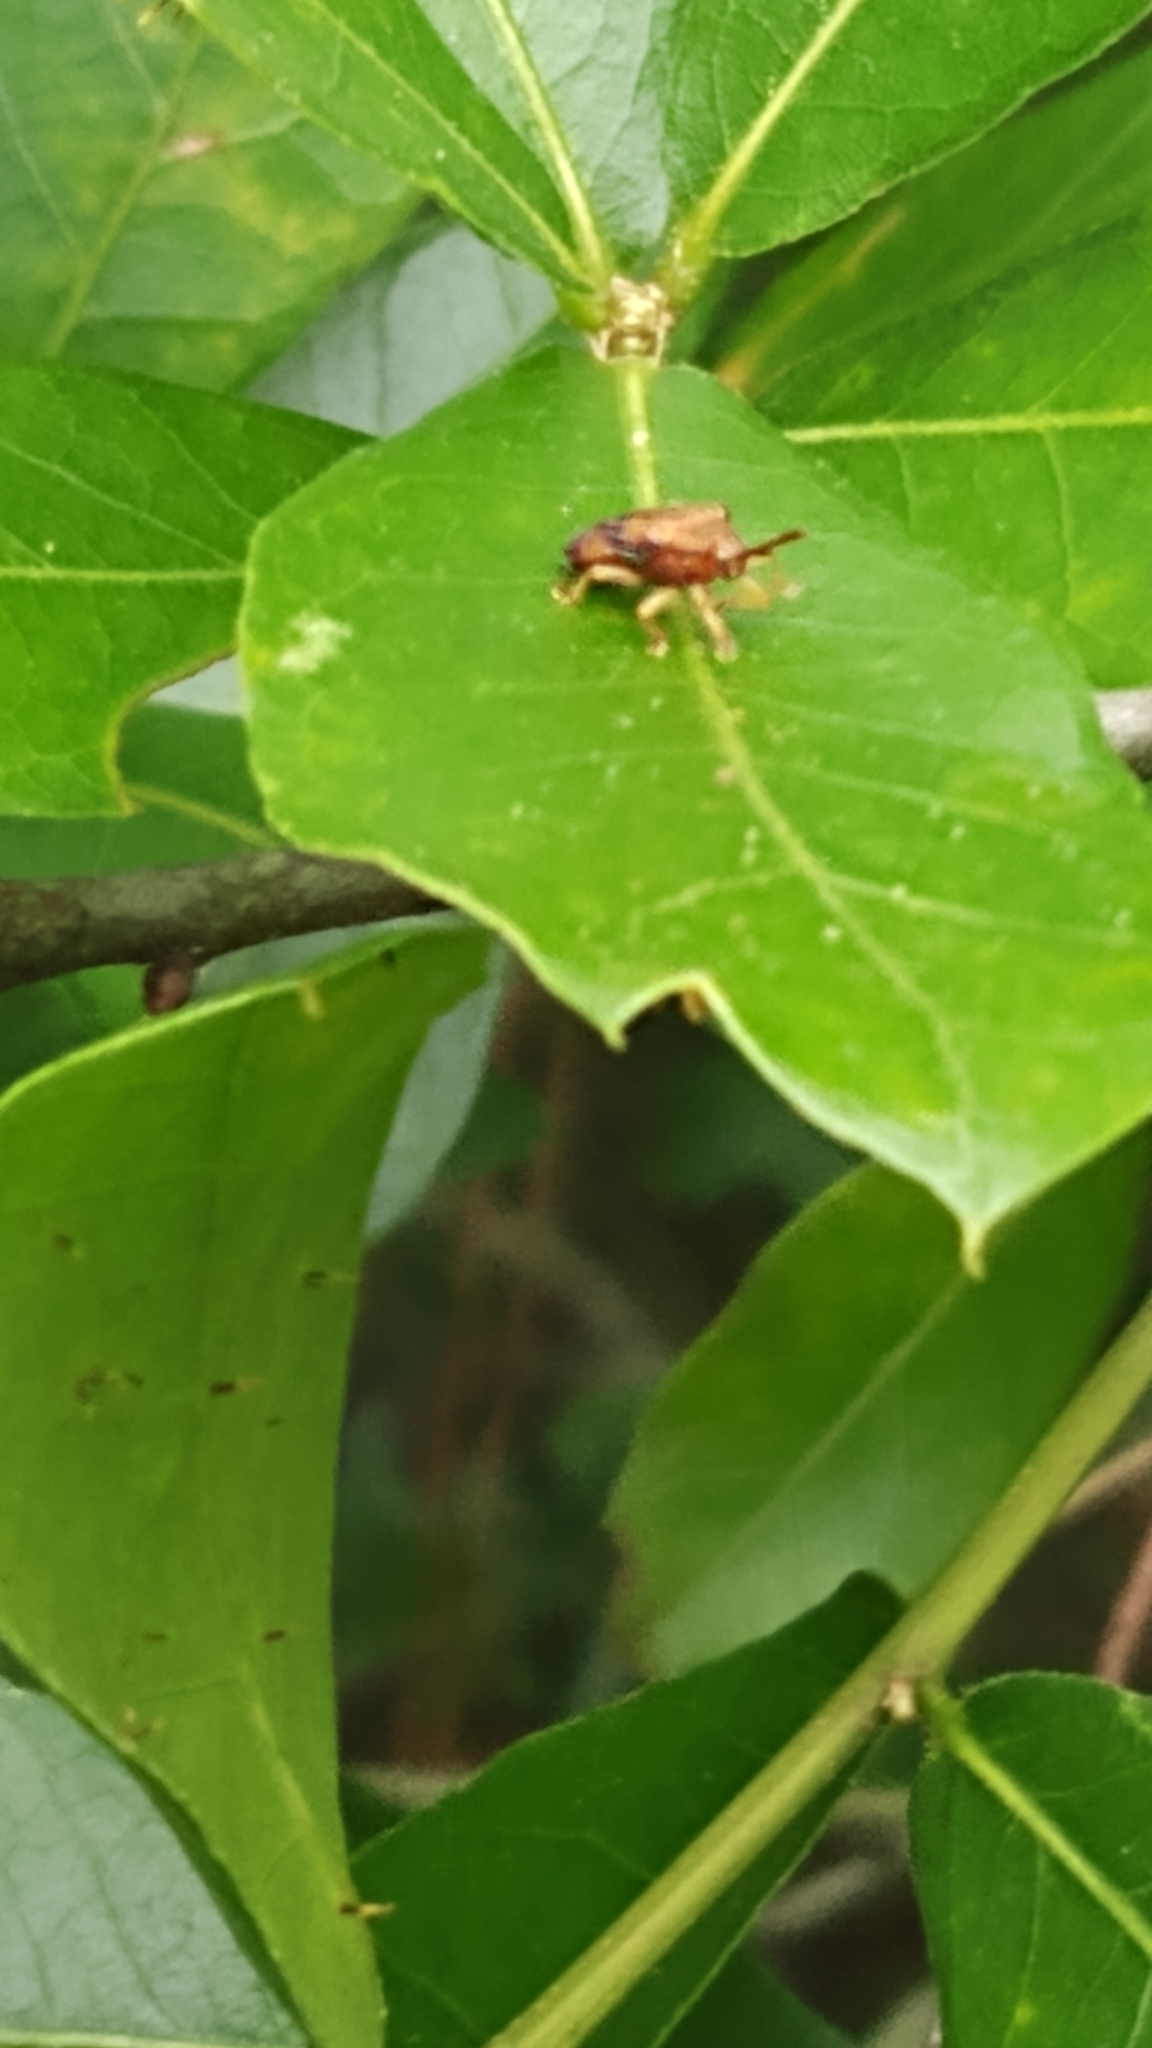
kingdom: Animalia
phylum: Arthropoda
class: Insecta
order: Coleoptera
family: Chrysomelidae
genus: Baliosus
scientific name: Baliosus nervosus
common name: Basswood leaf miner
